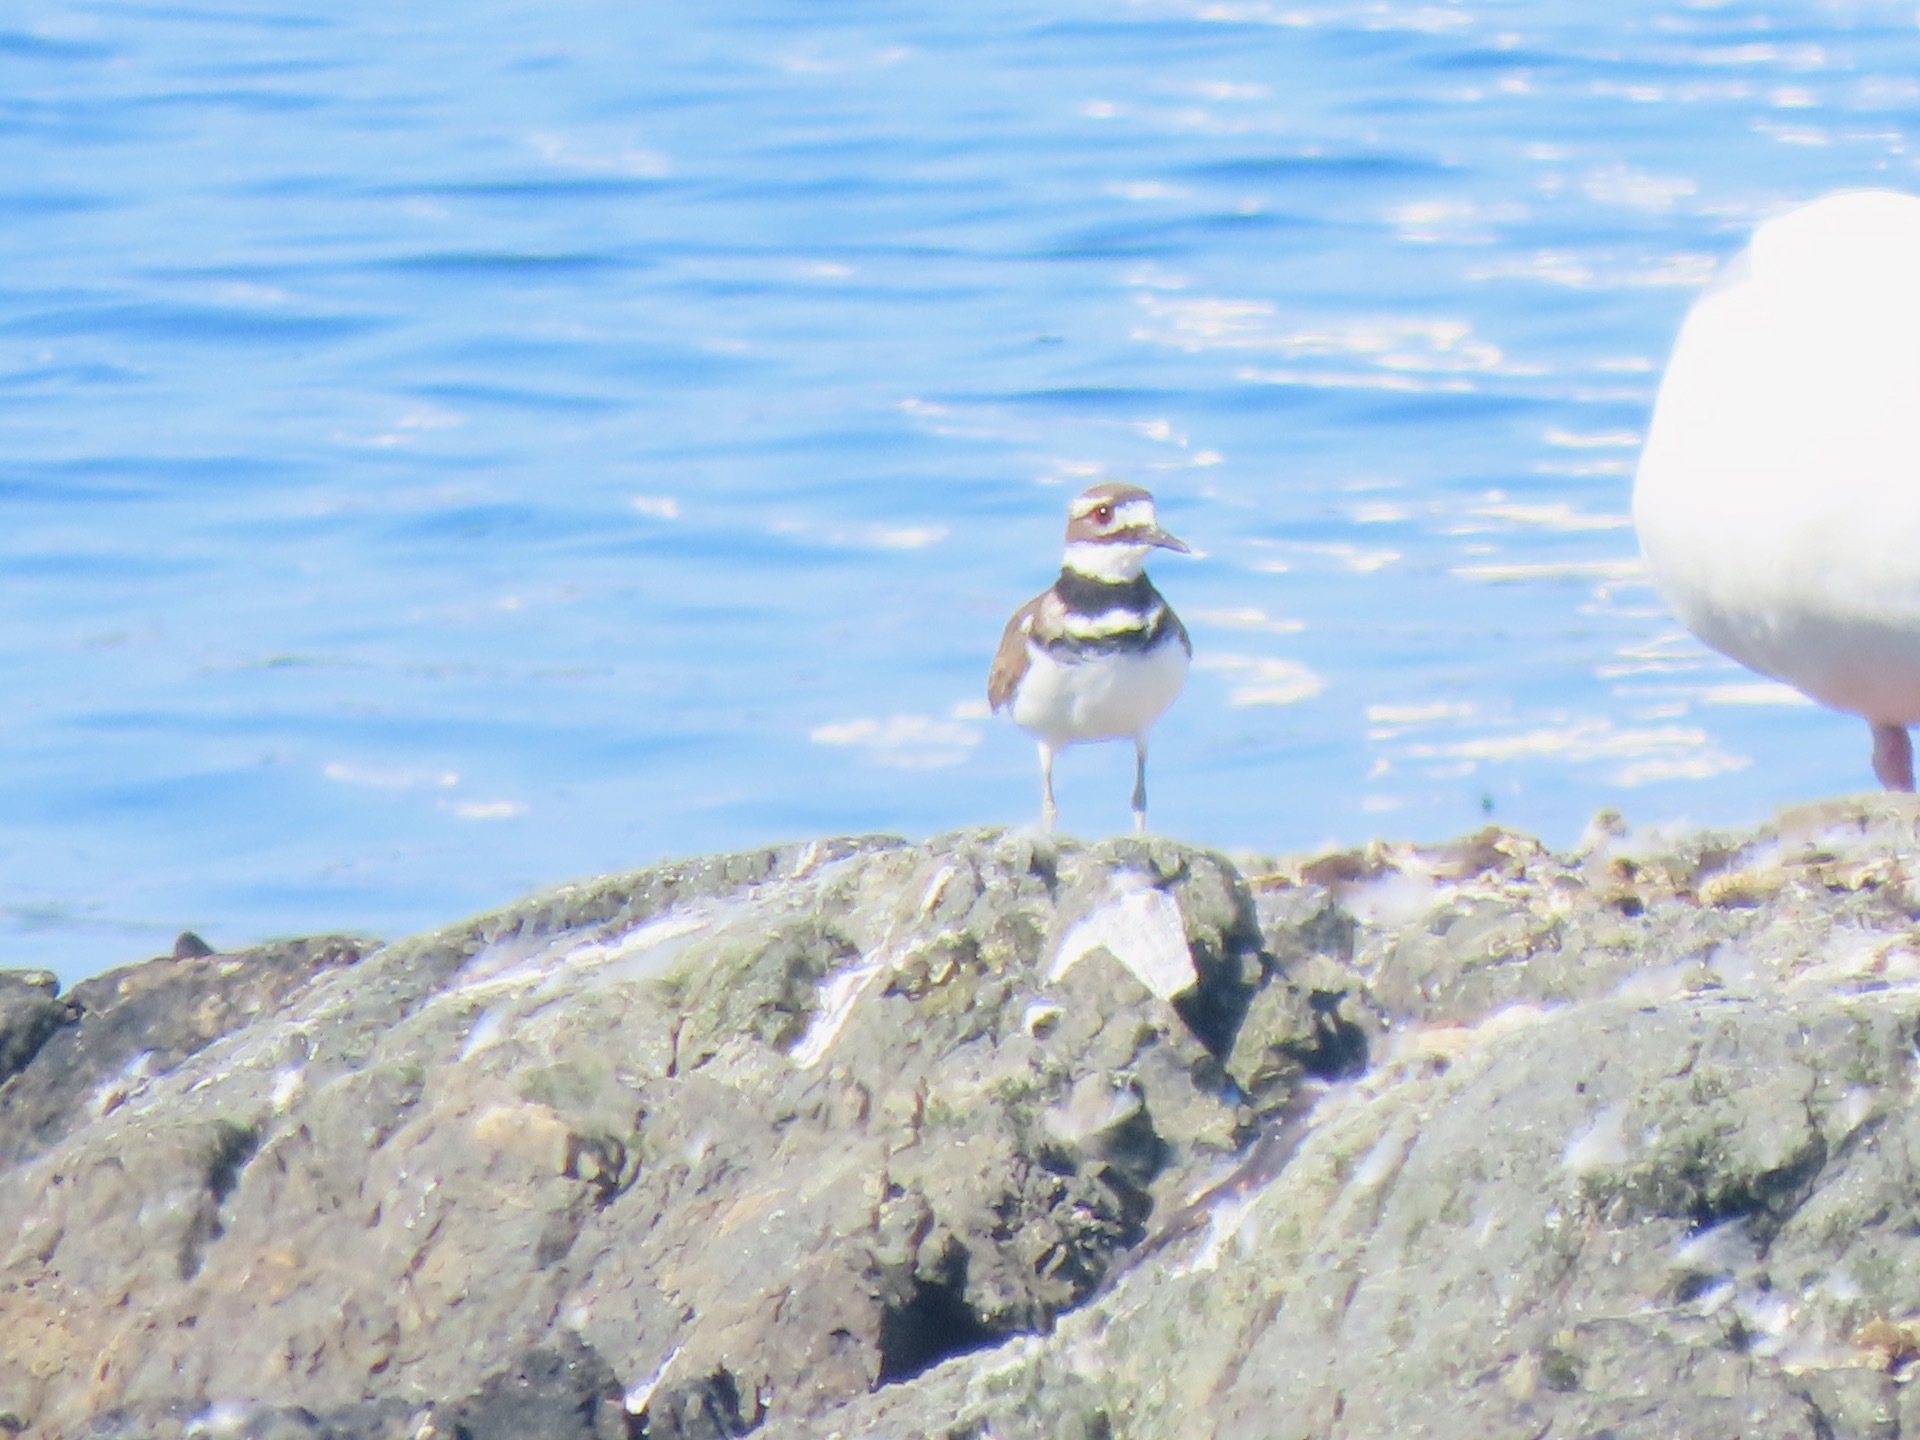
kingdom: Animalia
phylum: Chordata
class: Aves
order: Charadriiformes
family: Charadriidae
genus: Charadrius
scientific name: Charadrius vociferus
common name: Killdeer
